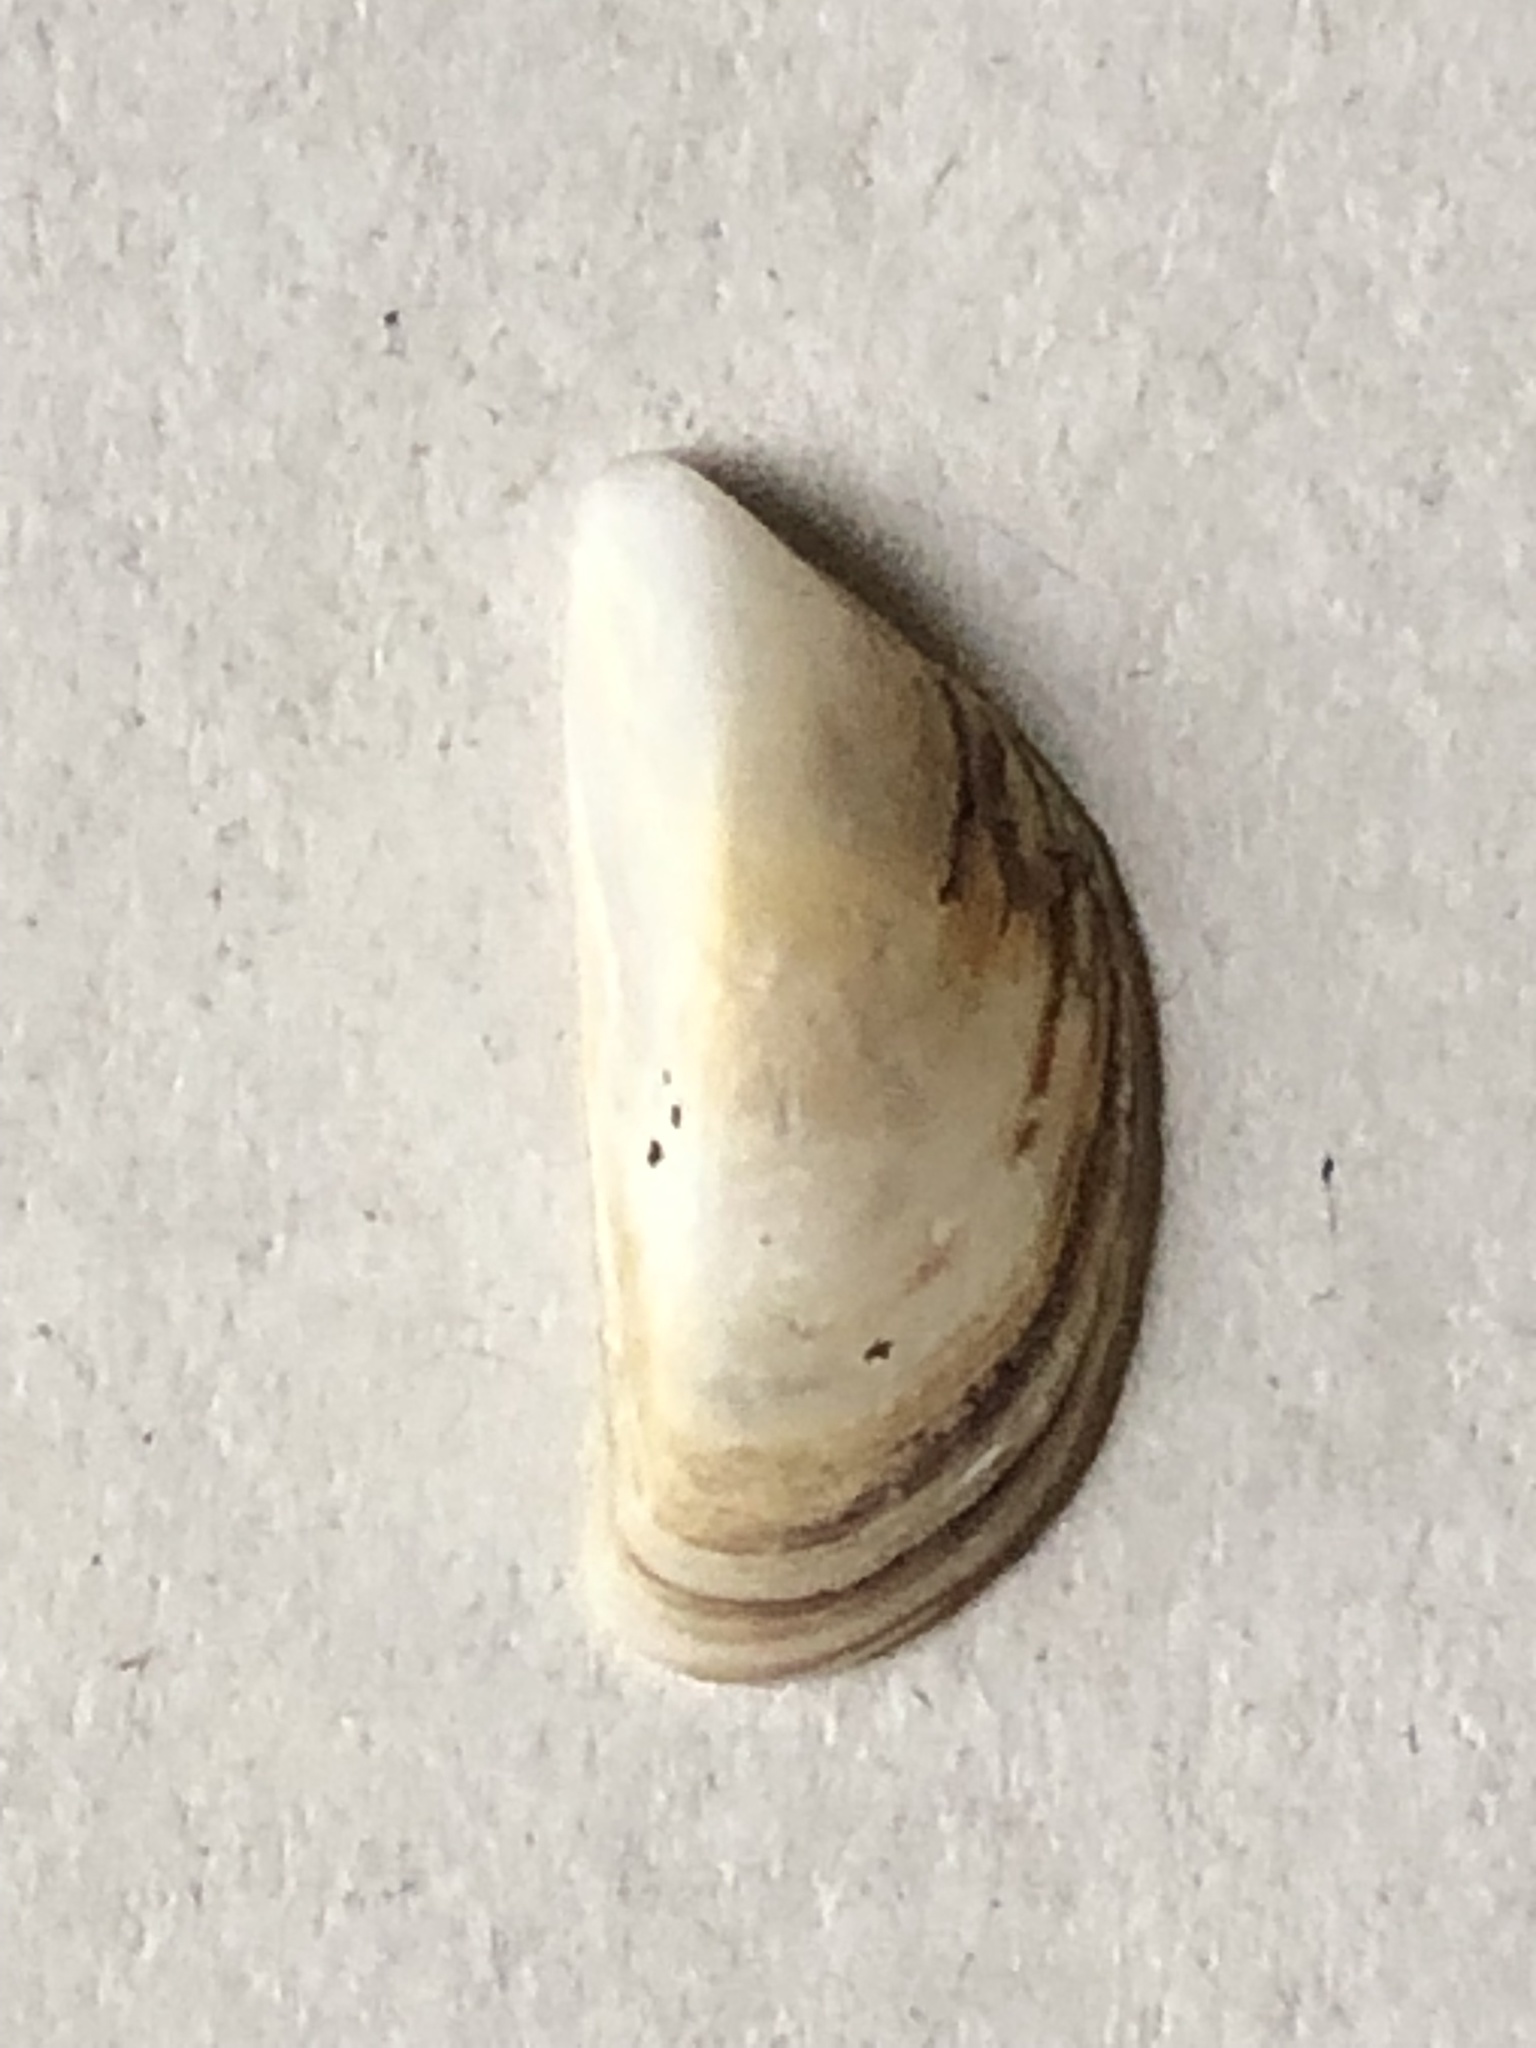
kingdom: Animalia
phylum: Mollusca
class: Bivalvia
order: Myida
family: Dreissenidae
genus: Dreissena
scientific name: Dreissena polymorpha
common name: Zebra mussel
